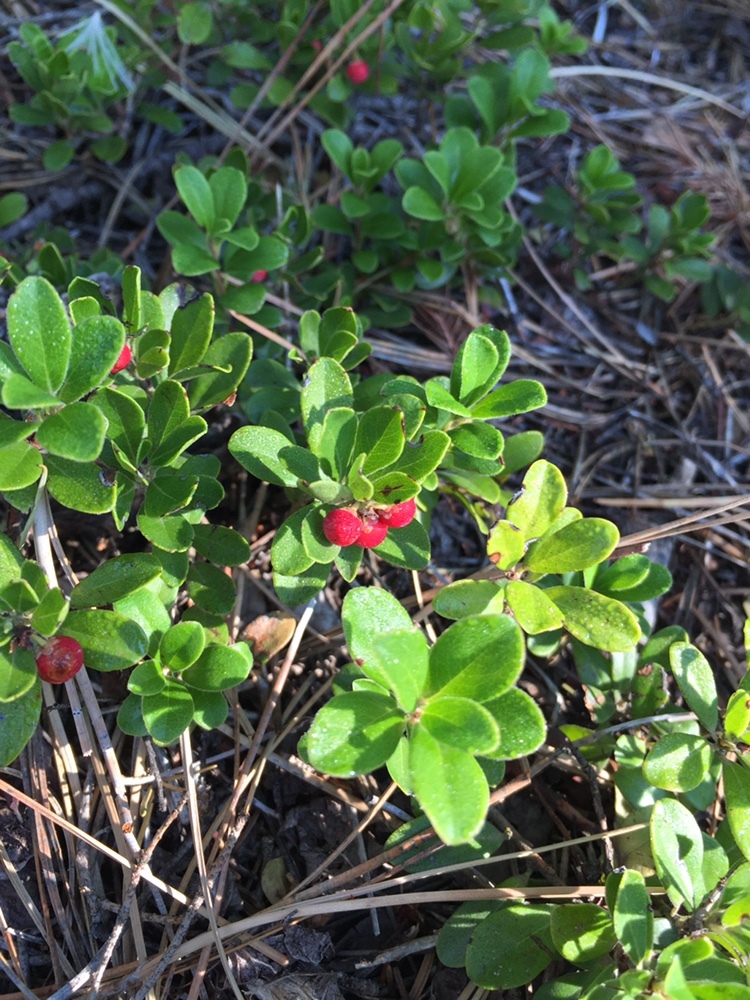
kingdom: Plantae
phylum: Tracheophyta
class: Magnoliopsida
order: Ericales
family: Ericaceae
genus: Arctostaphylos
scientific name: Arctostaphylos uva-ursi
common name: Bearberry
